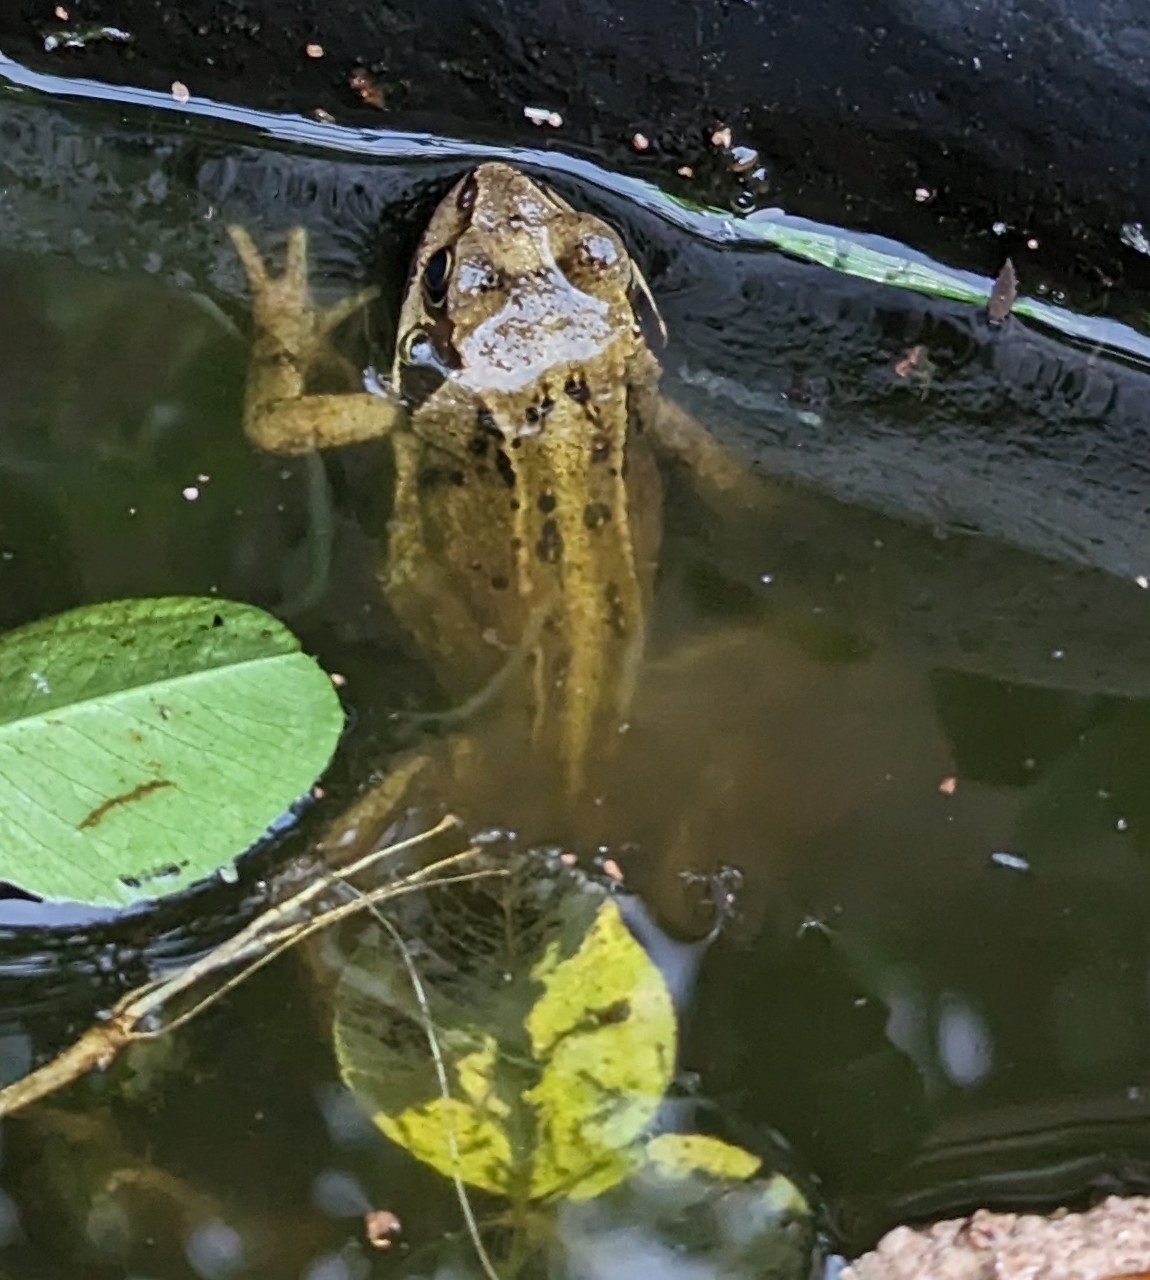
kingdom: Animalia
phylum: Chordata
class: Amphibia
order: Anura
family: Ranidae
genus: Rana
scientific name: Rana temporaria
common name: Common frog
